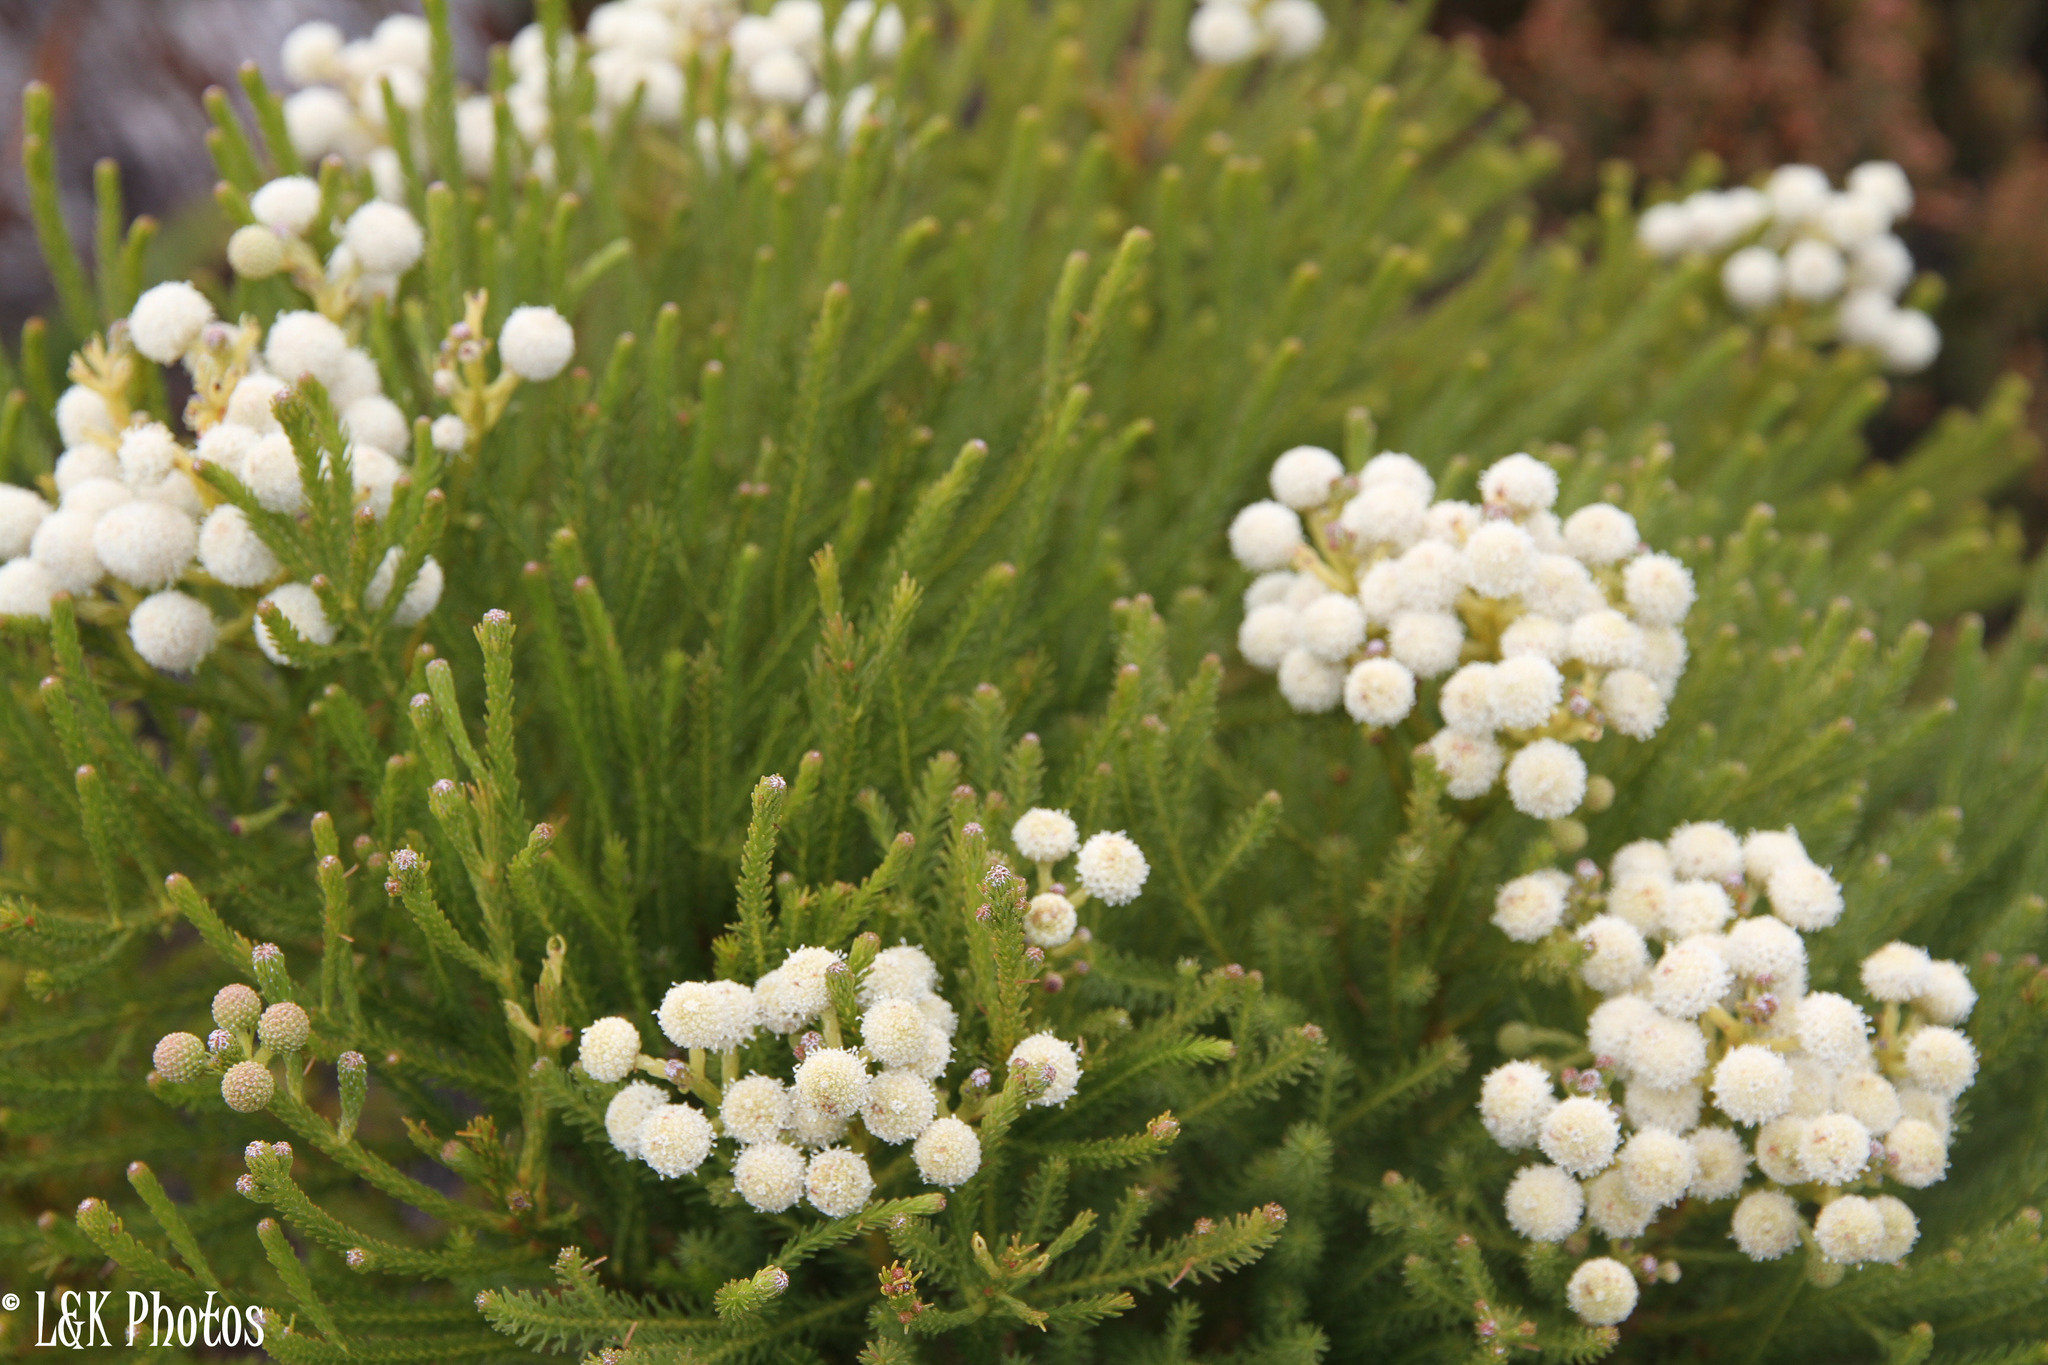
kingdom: Plantae
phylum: Tracheophyta
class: Magnoliopsida
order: Bruniales
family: Bruniaceae
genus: Berzelia
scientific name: Berzelia lanuginosa
